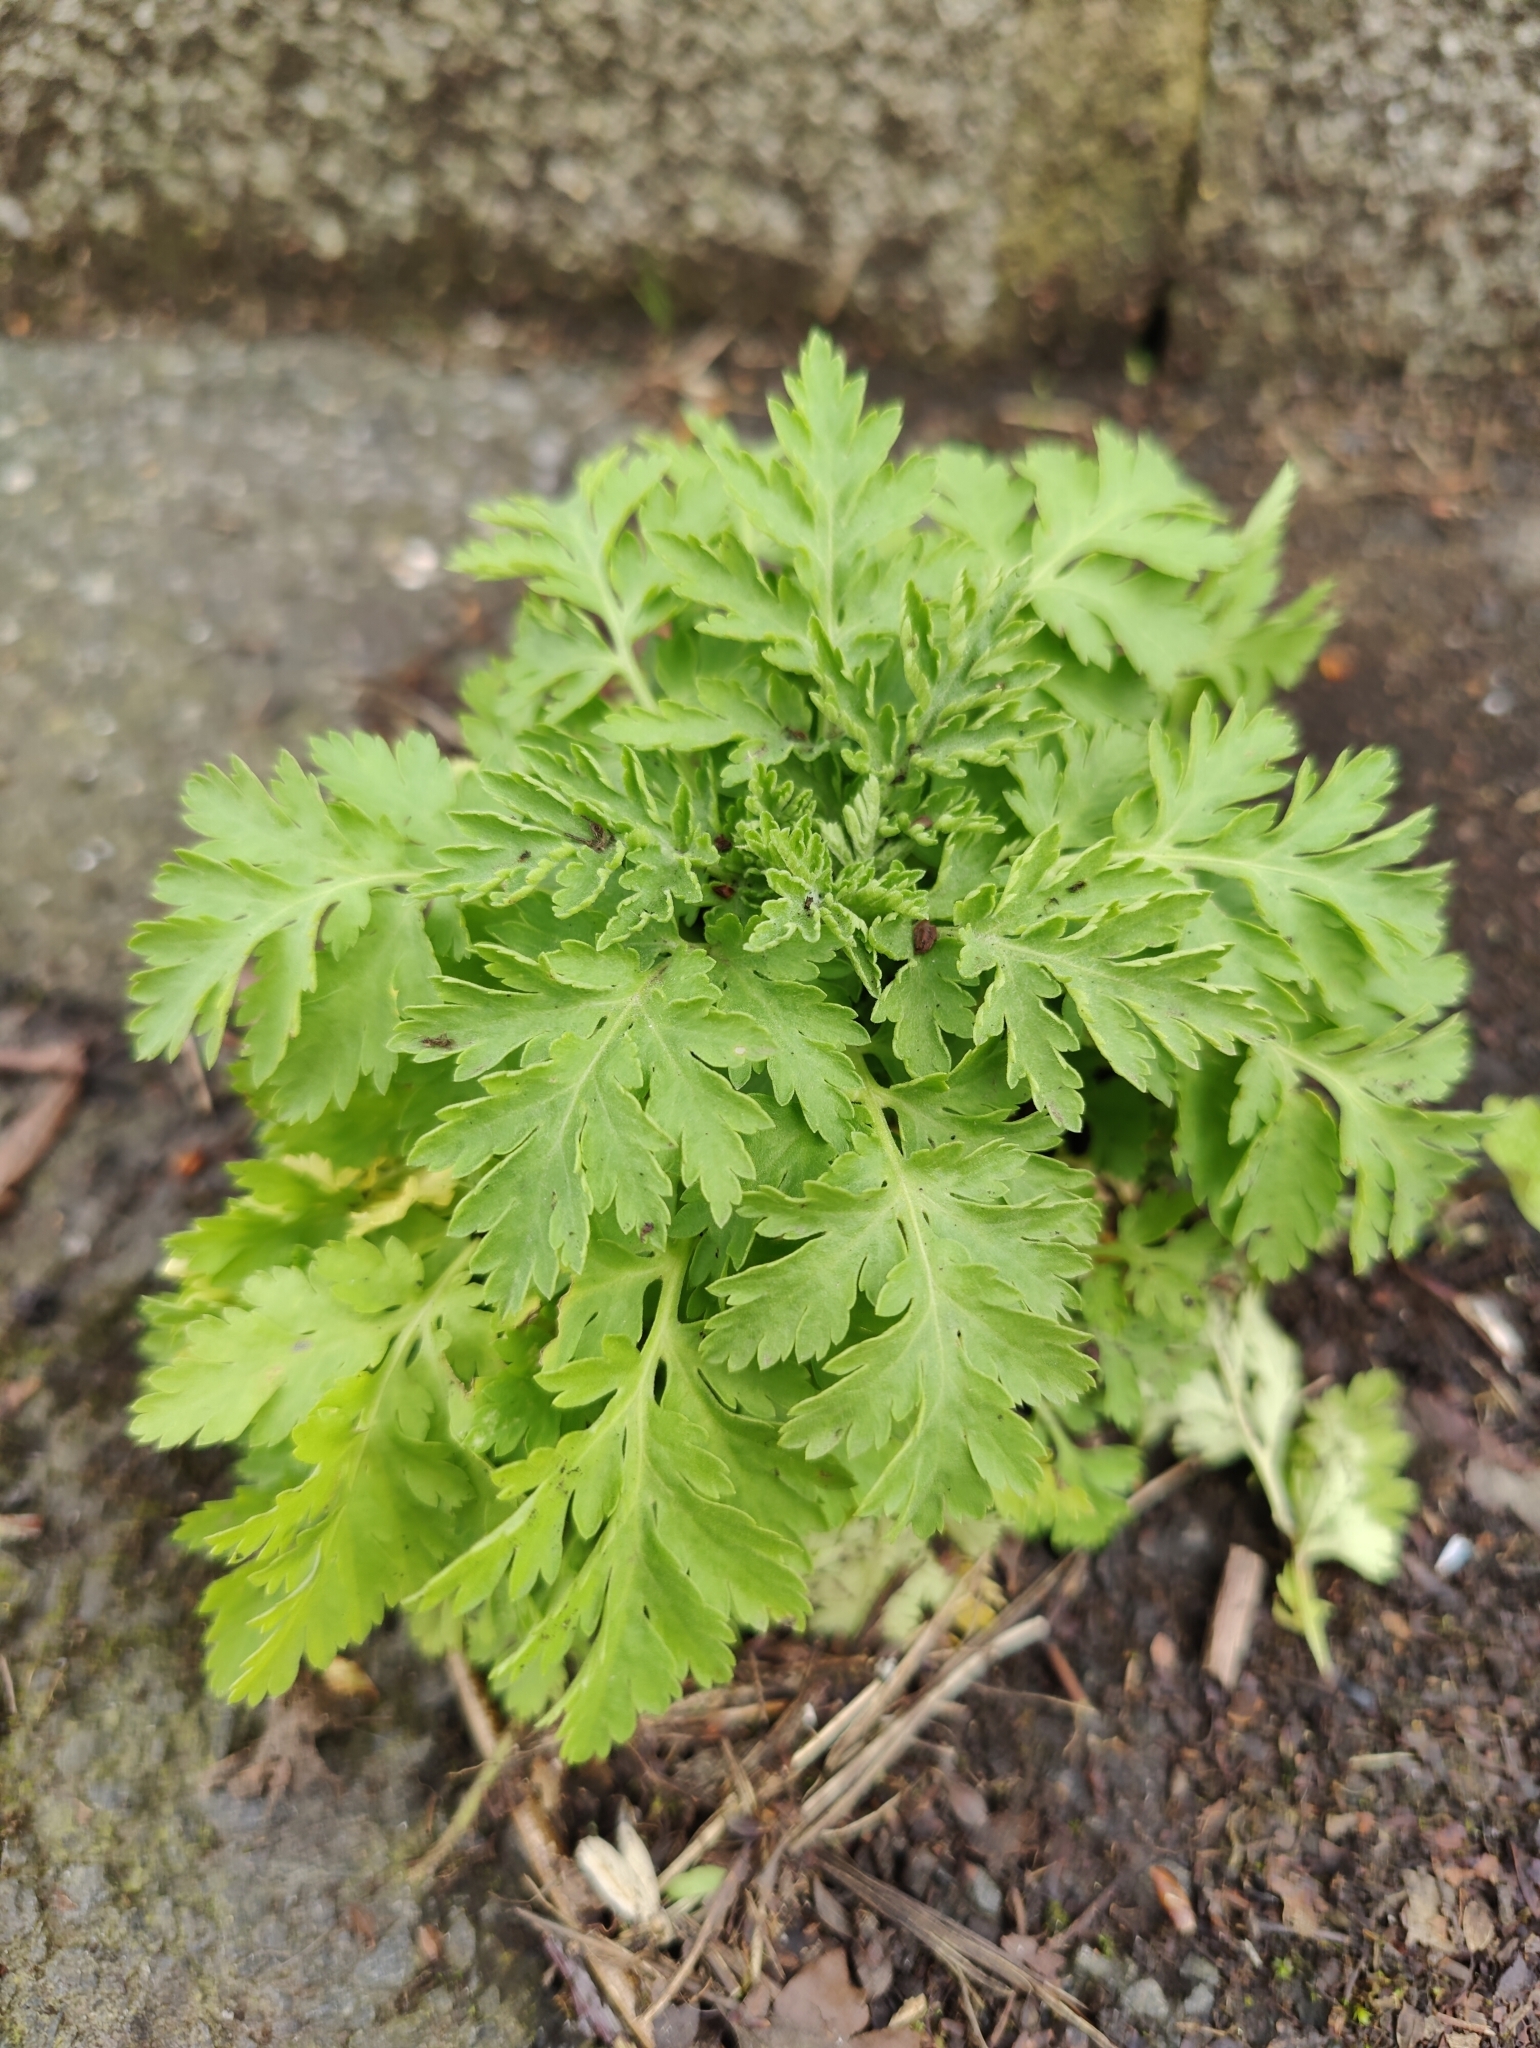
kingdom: Plantae
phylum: Tracheophyta
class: Magnoliopsida
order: Asterales
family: Asteraceae
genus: Tanacetum
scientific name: Tanacetum parthenium
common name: Feverfew
